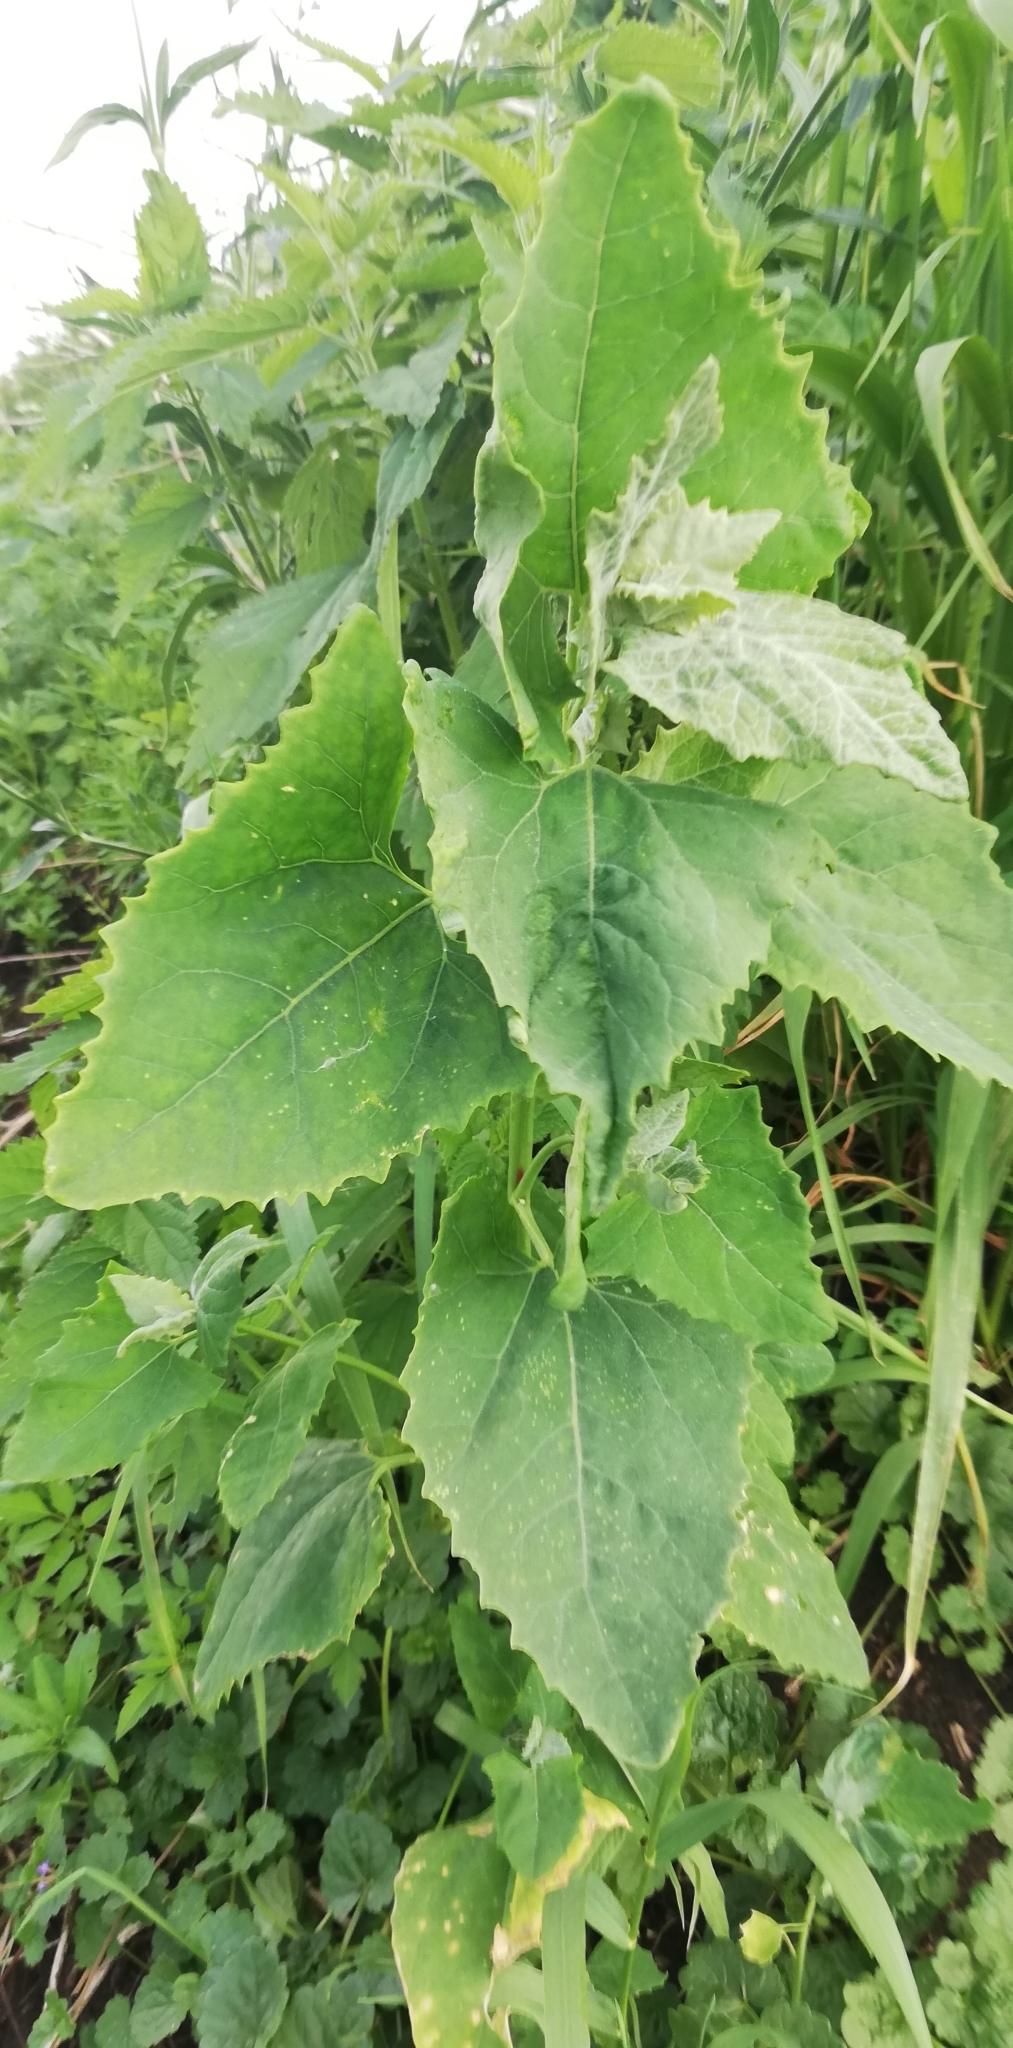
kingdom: Plantae
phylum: Tracheophyta
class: Magnoliopsida
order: Caryophyllales
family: Amaranthaceae
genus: Atriplex
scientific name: Atriplex sagittata
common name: Purple orache
